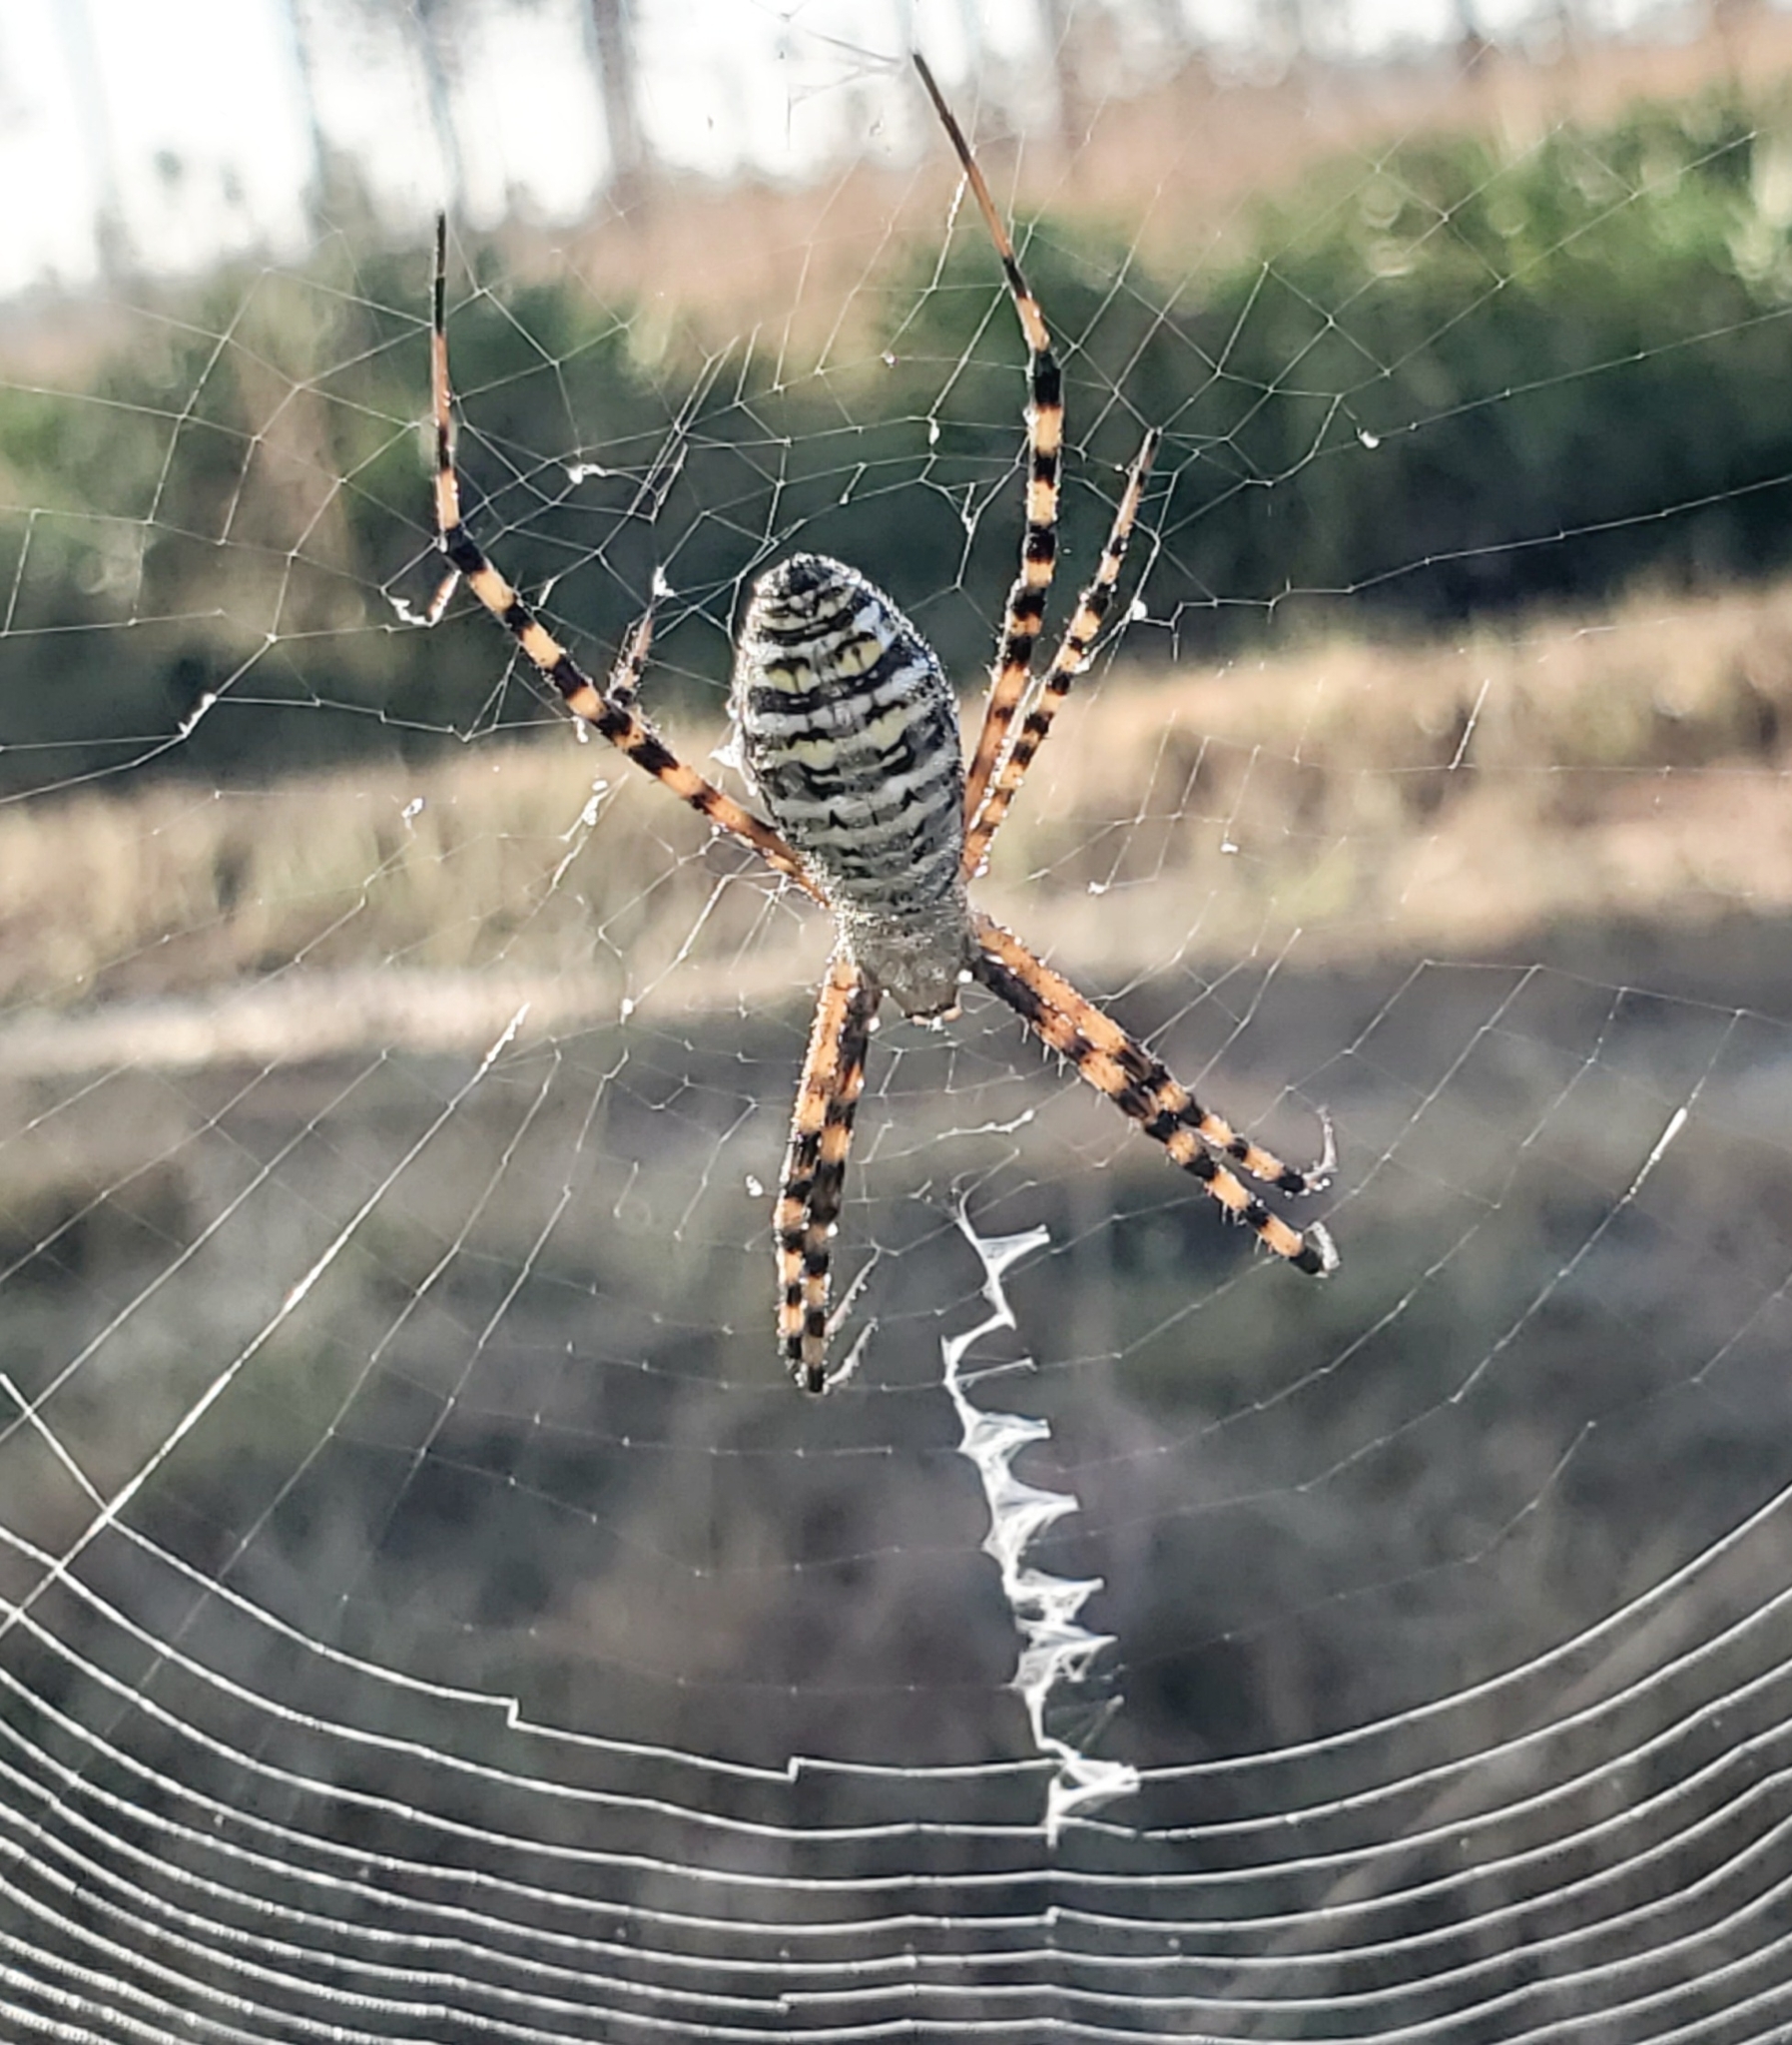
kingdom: Animalia
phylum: Arthropoda
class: Arachnida
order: Araneae
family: Araneidae
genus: Argiope
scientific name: Argiope trifasciata
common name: Banded garden spider
